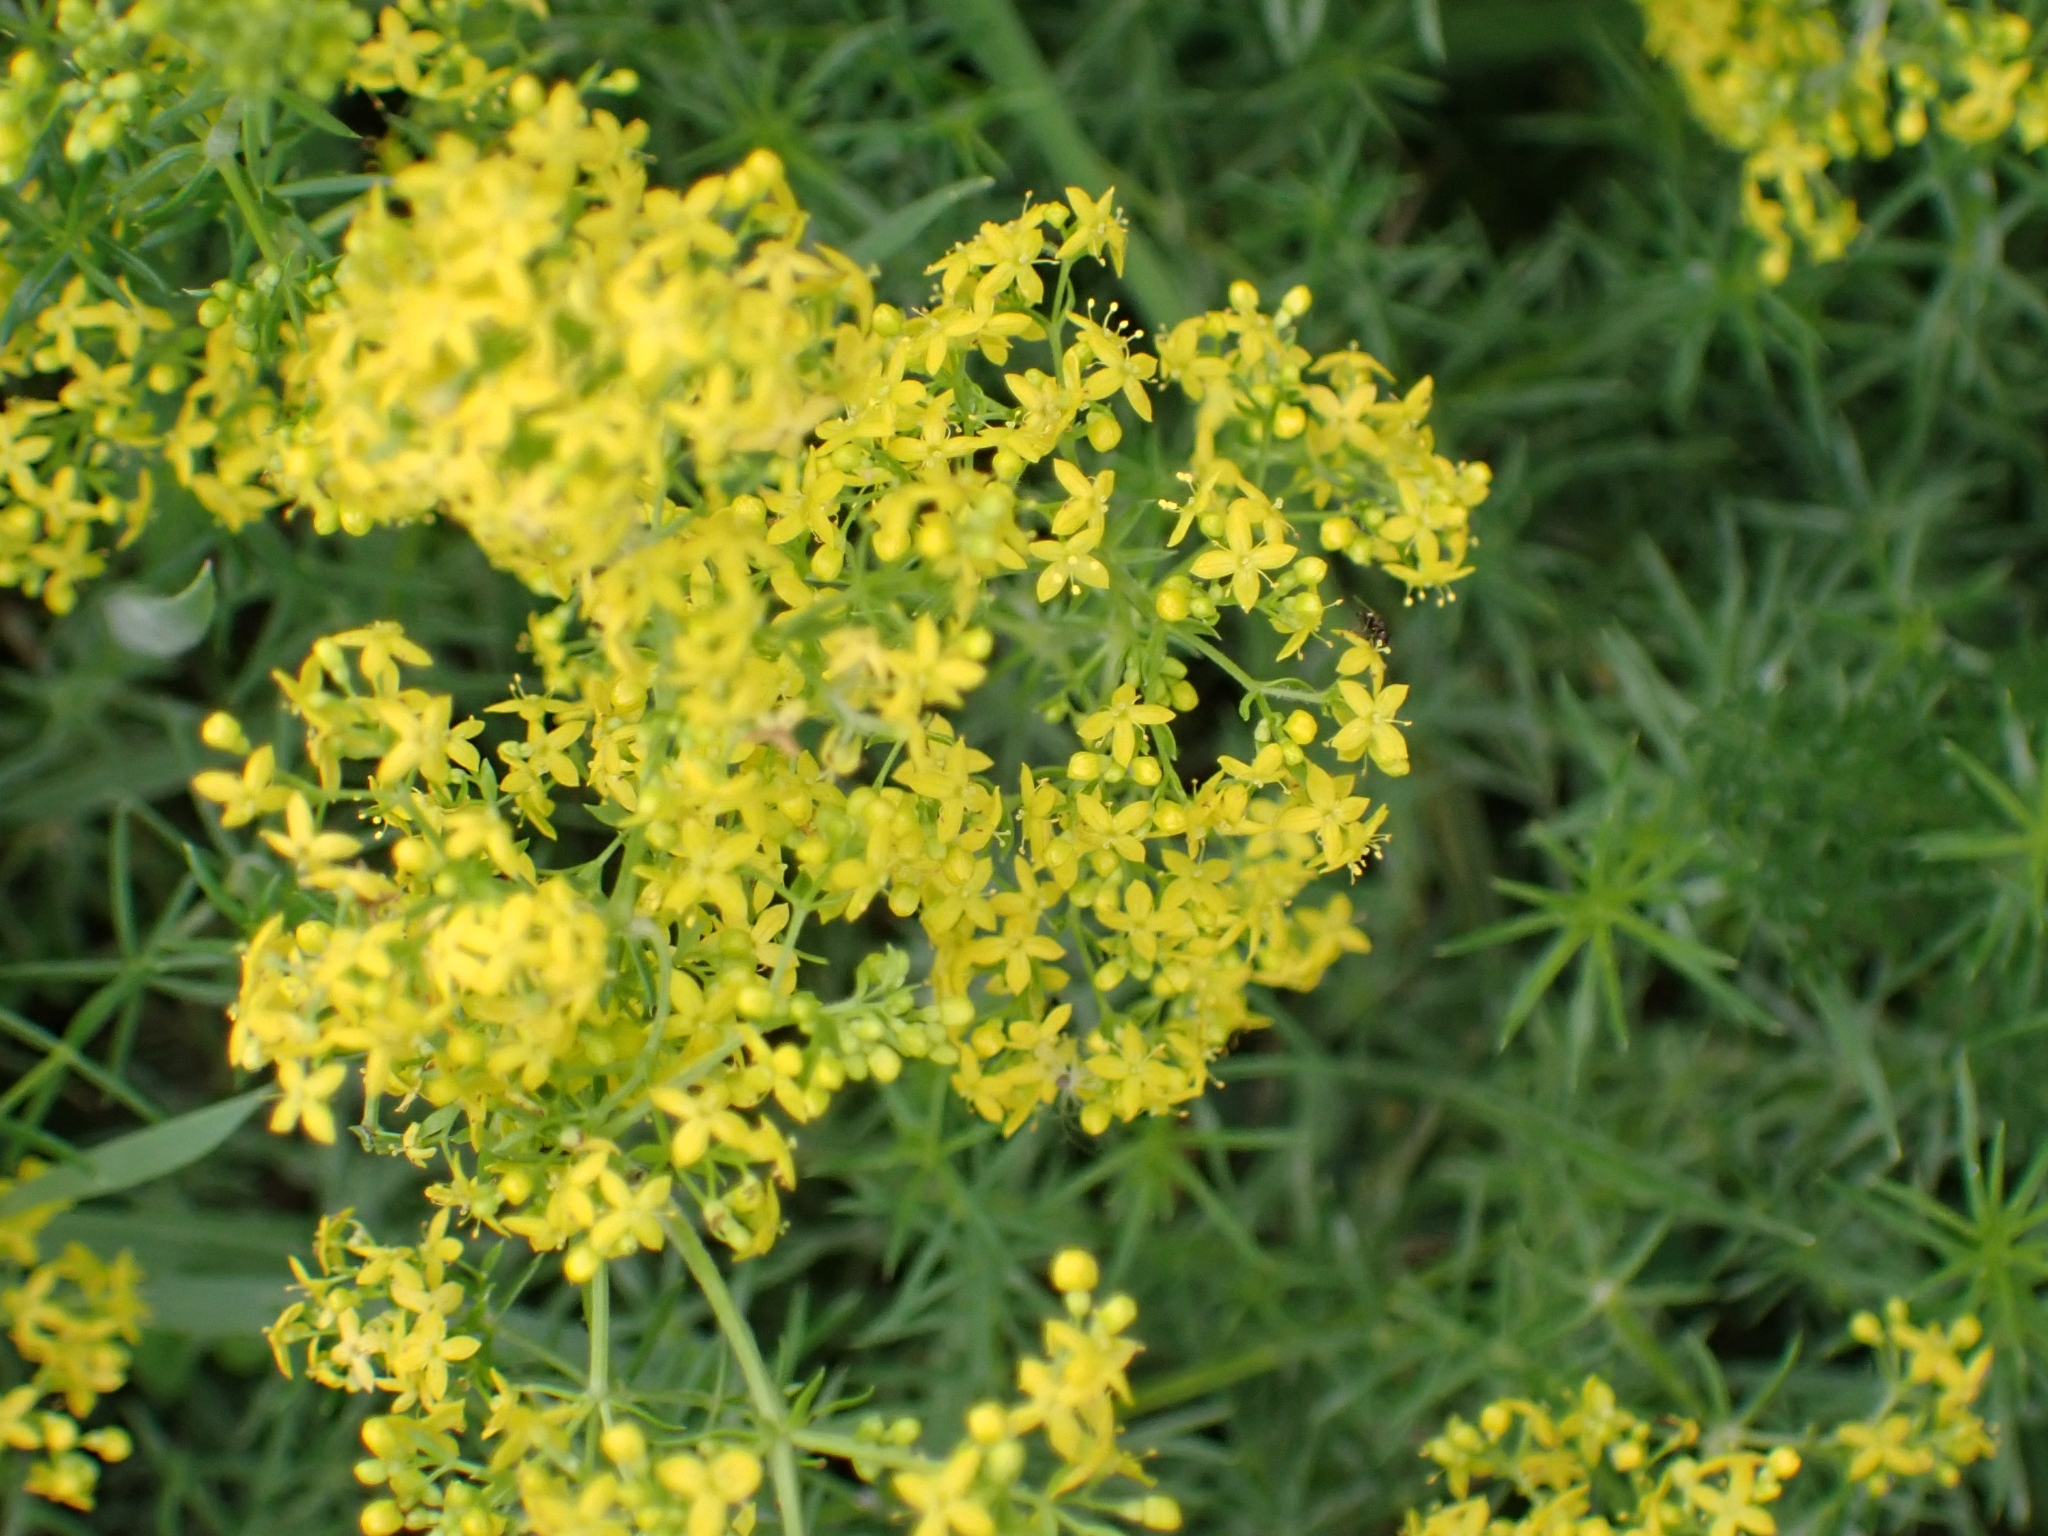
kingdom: Plantae
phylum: Tracheophyta
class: Magnoliopsida
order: Gentianales
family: Rubiaceae
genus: Galium
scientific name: Galium verum
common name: Lady's bedstraw
